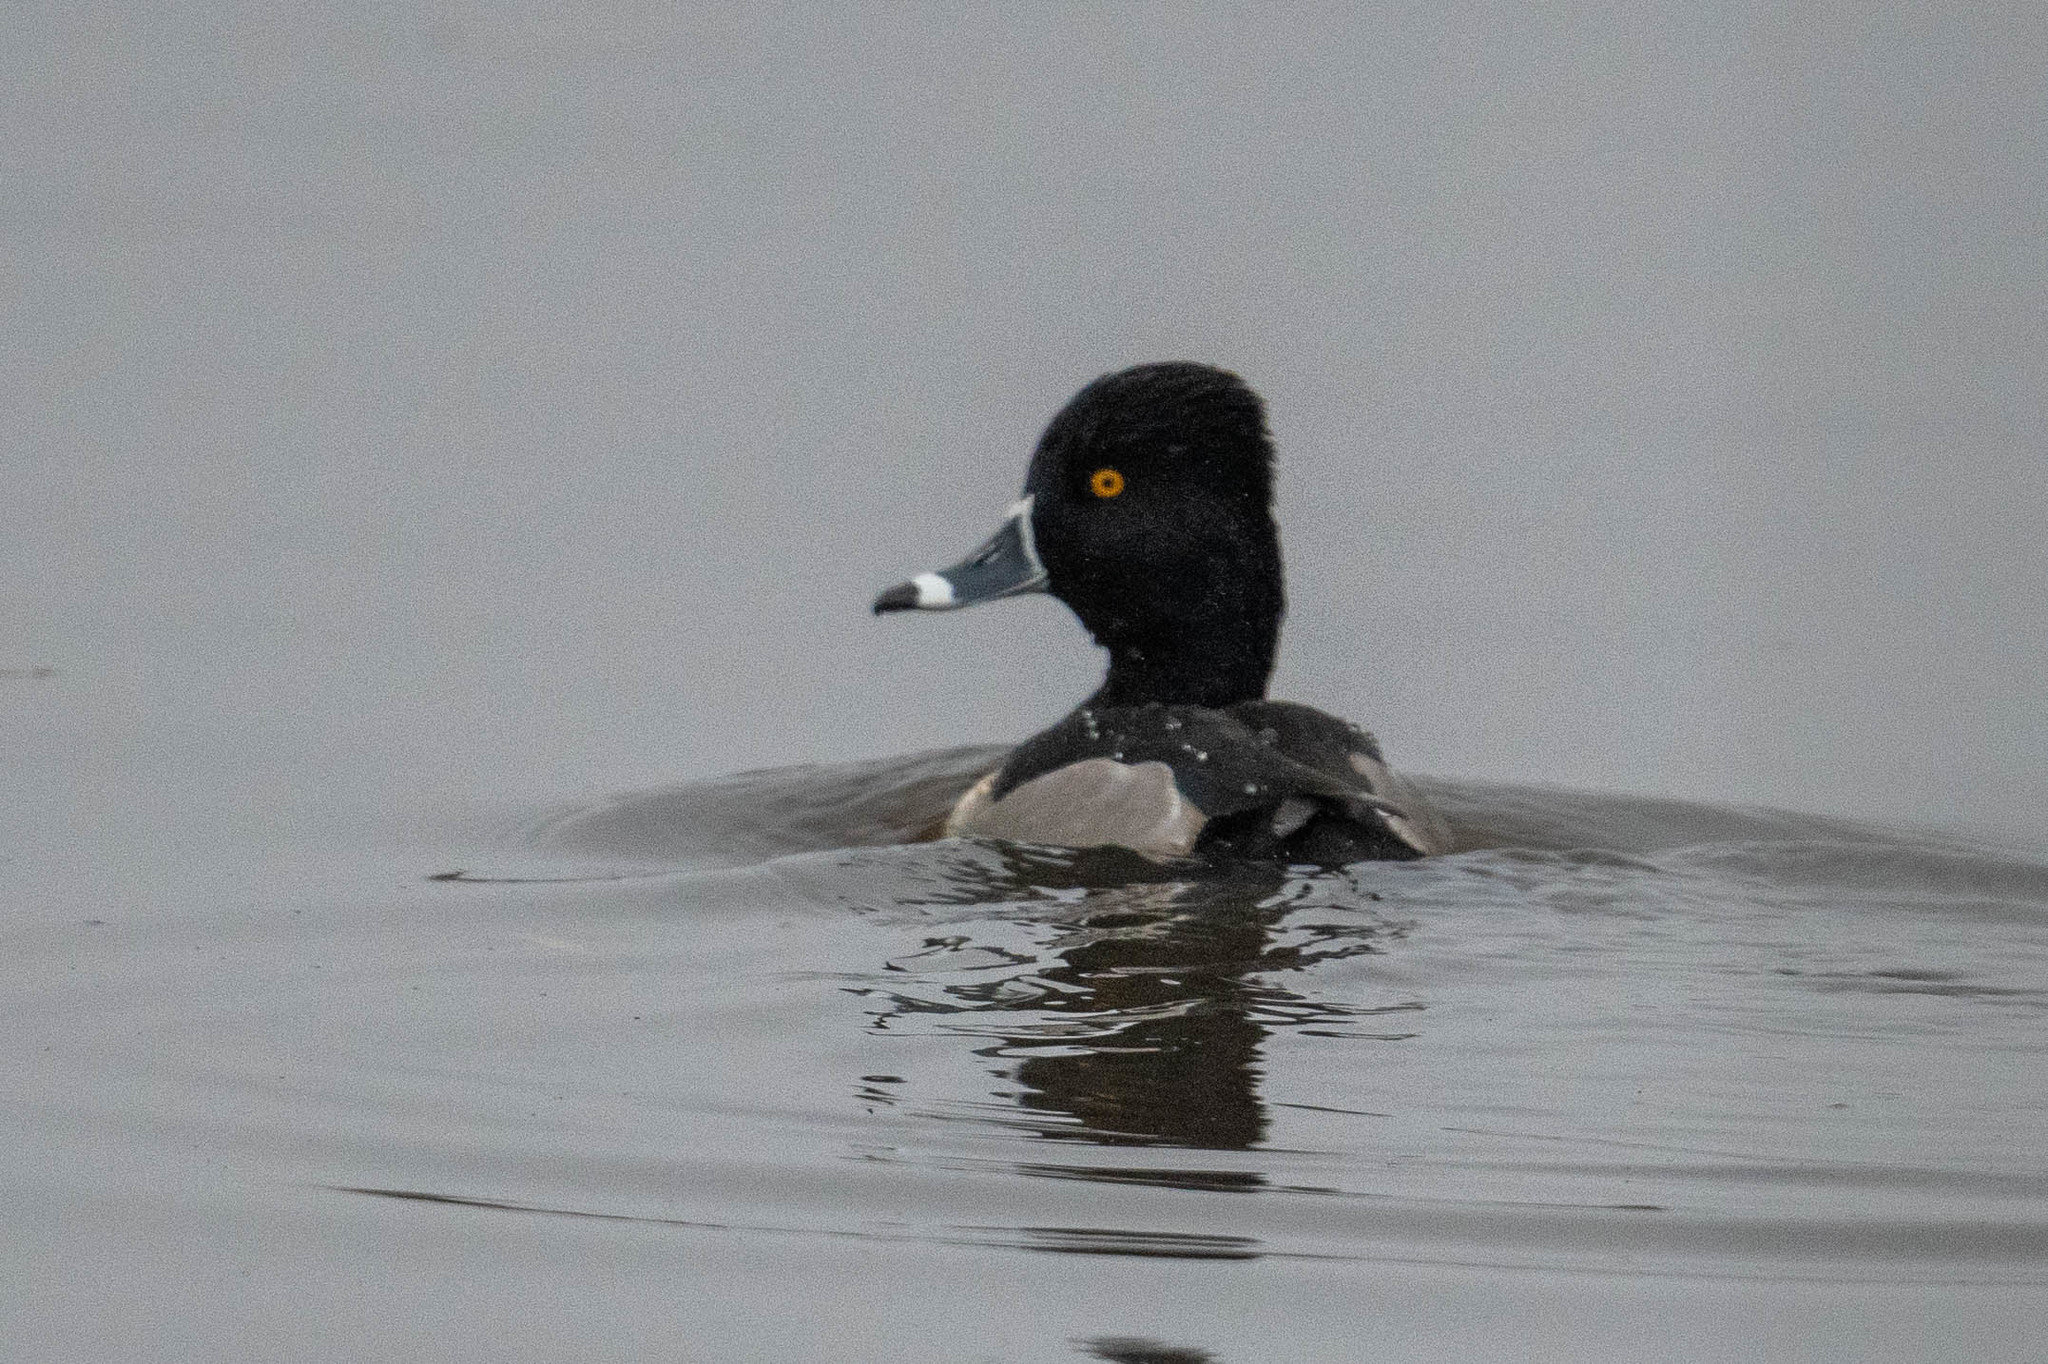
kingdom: Animalia
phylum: Chordata
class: Aves
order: Anseriformes
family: Anatidae
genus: Aythya
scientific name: Aythya collaris
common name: Ring-necked duck
